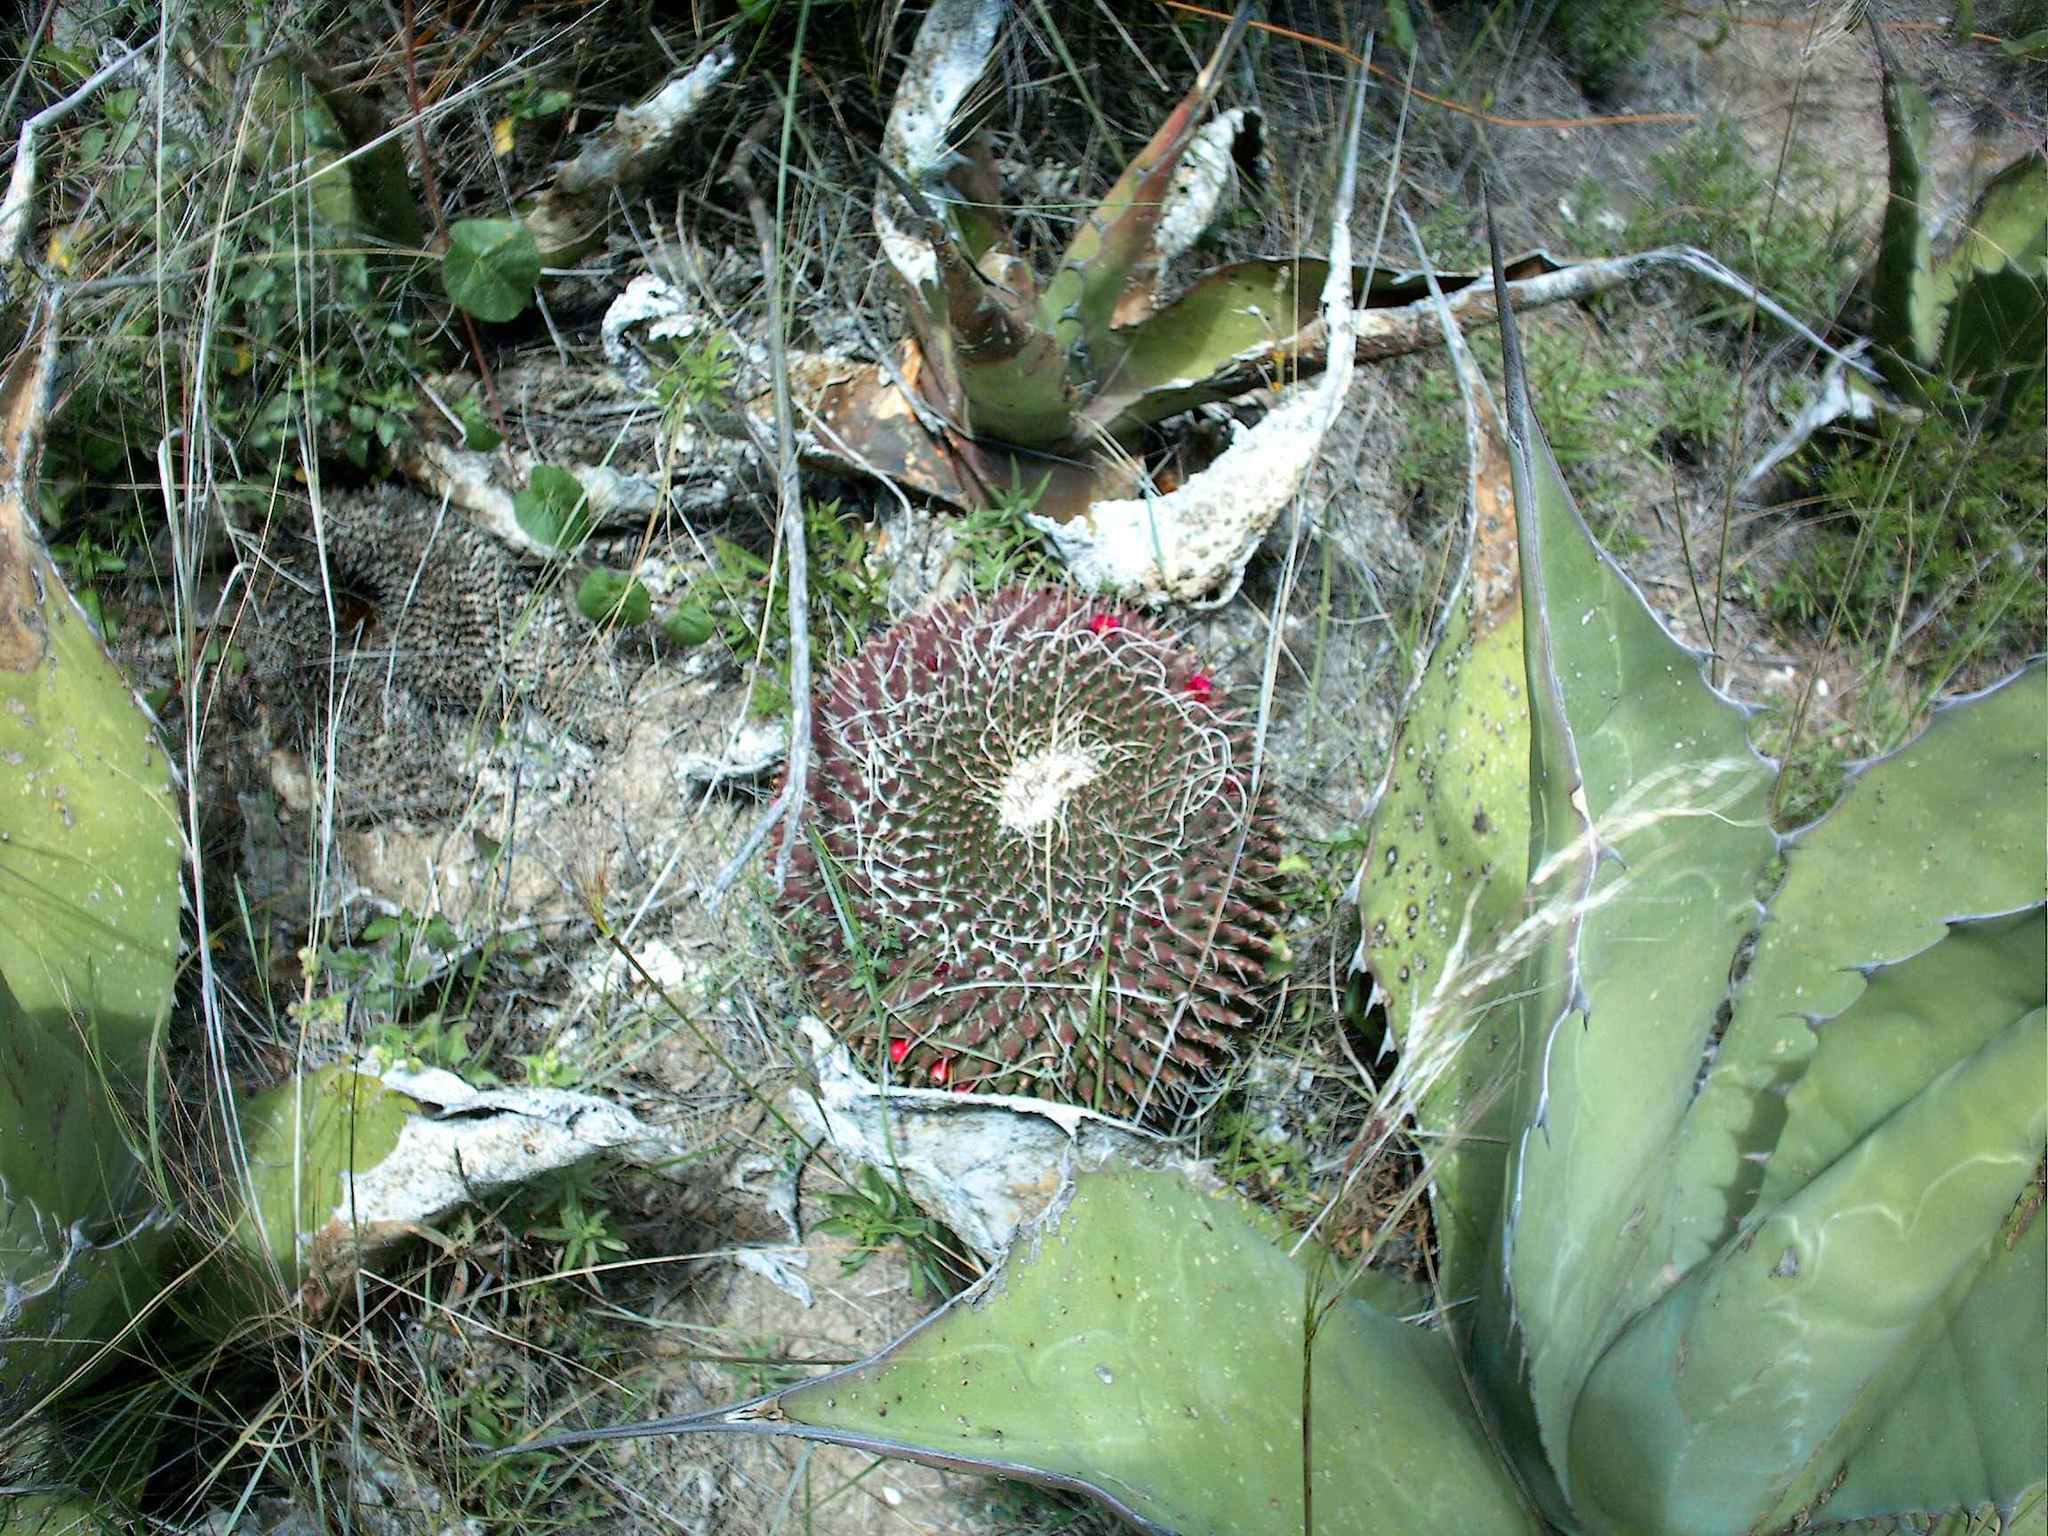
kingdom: Plantae
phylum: Tracheophyta
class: Magnoliopsida
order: Caryophyllales
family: Cactaceae
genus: Mammillaria
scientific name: Mammillaria mystax
